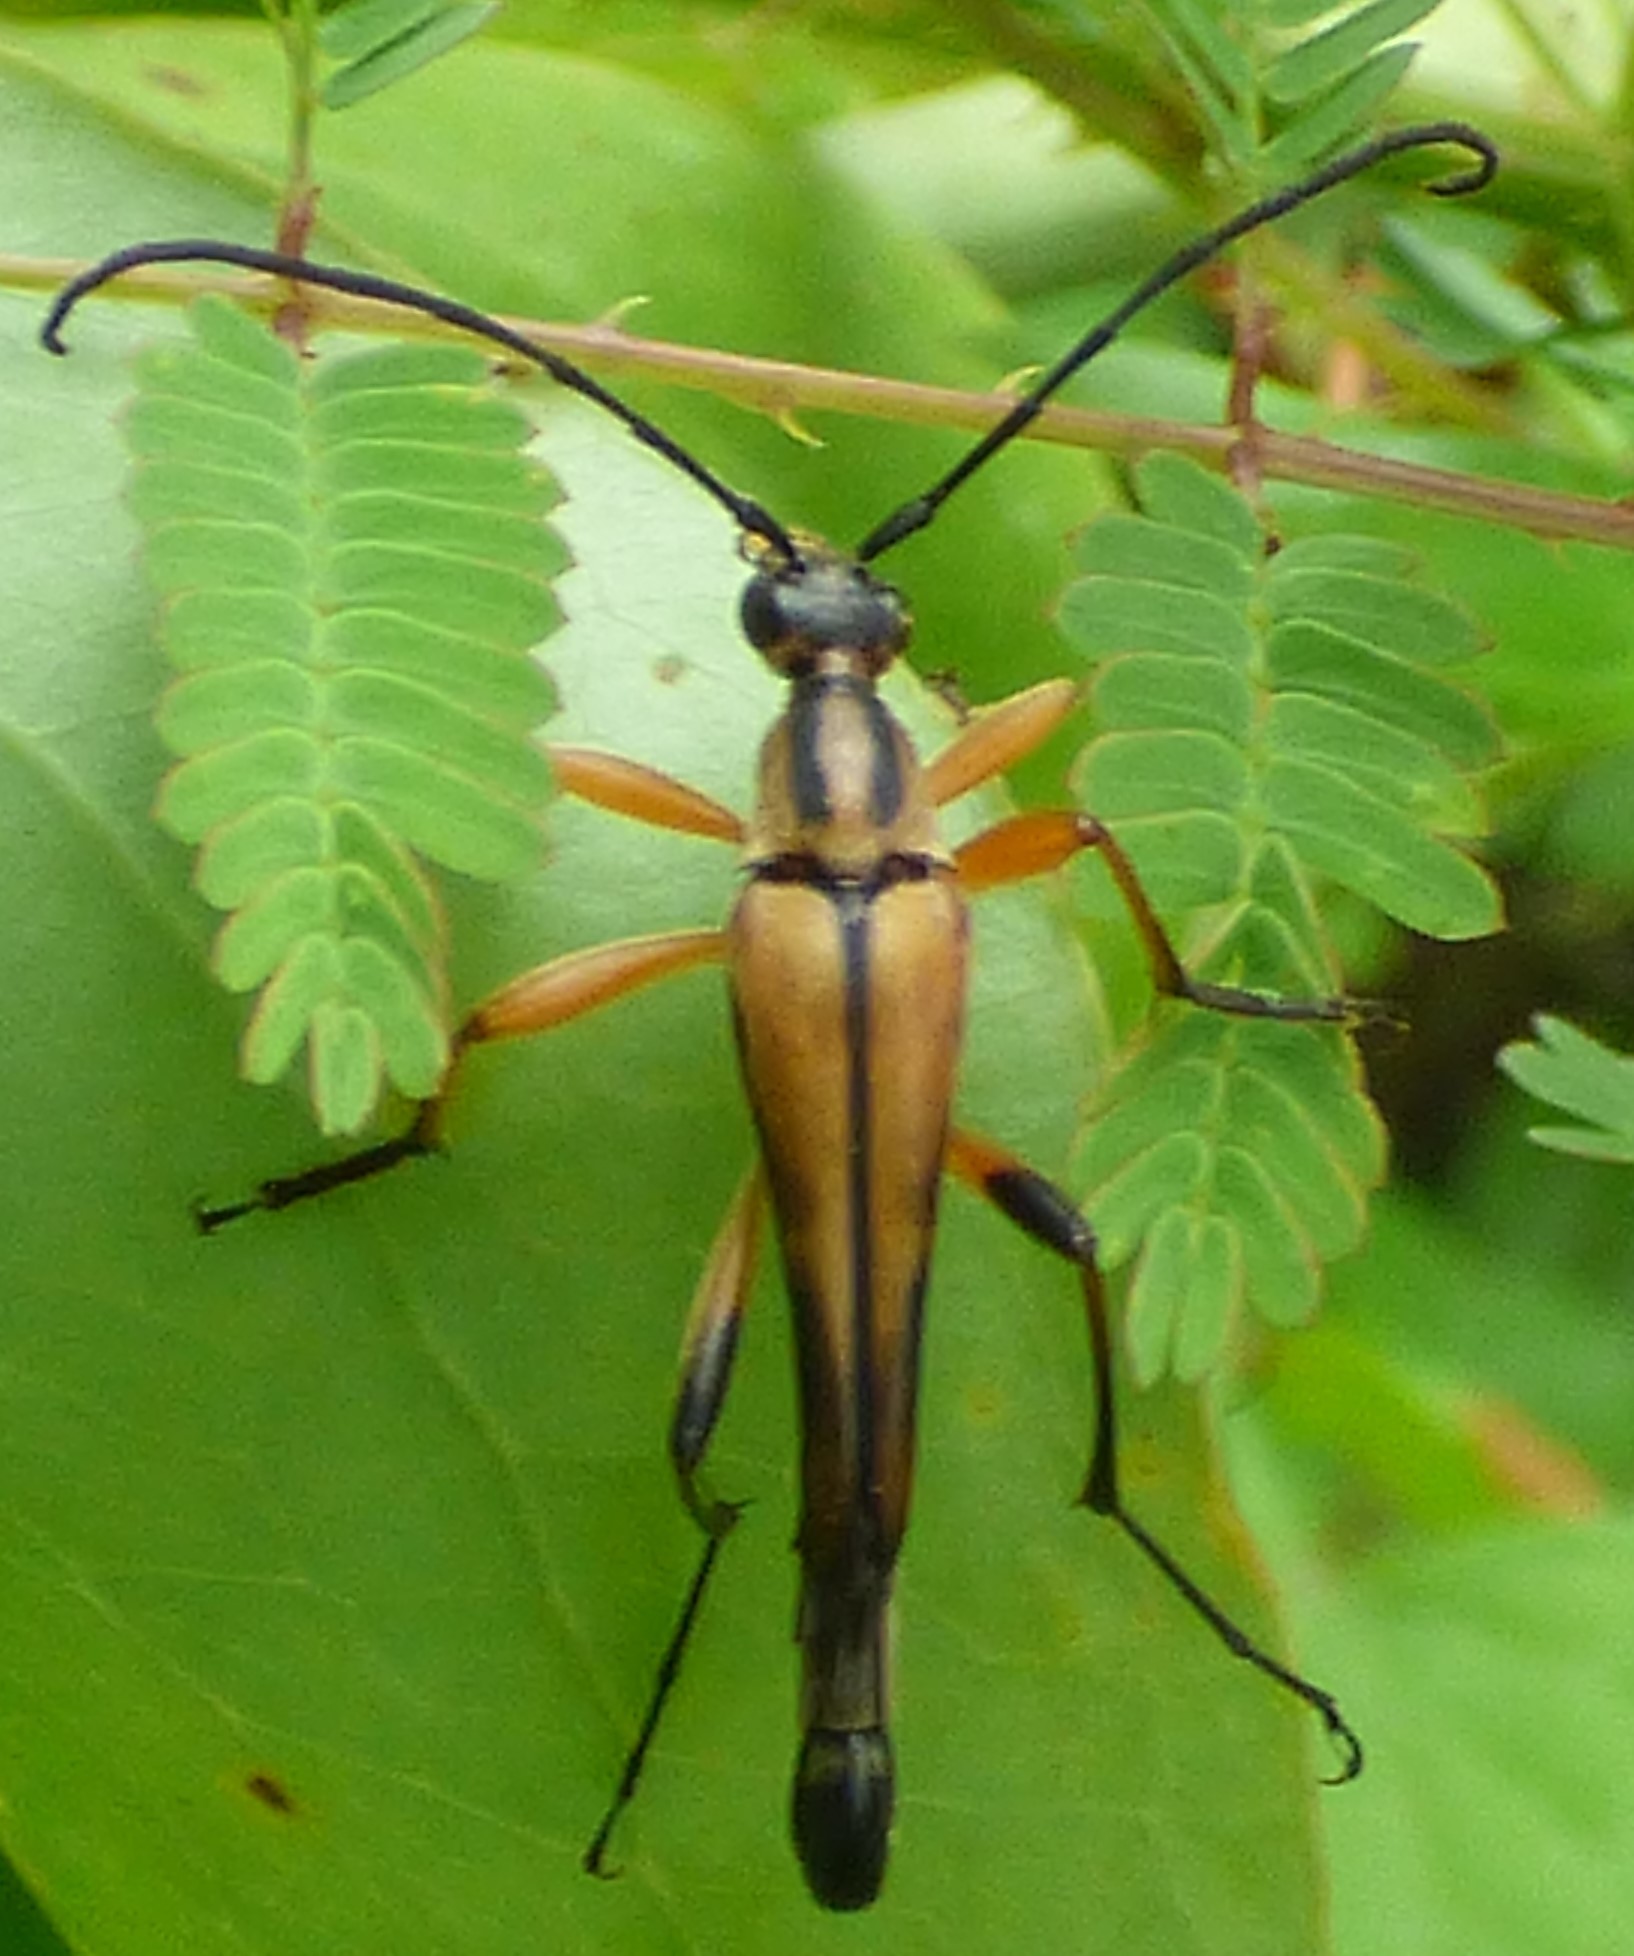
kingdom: Animalia
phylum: Arthropoda
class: Insecta
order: Coleoptera
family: Cerambycidae
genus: Strangalia
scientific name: Strangalia famelica
